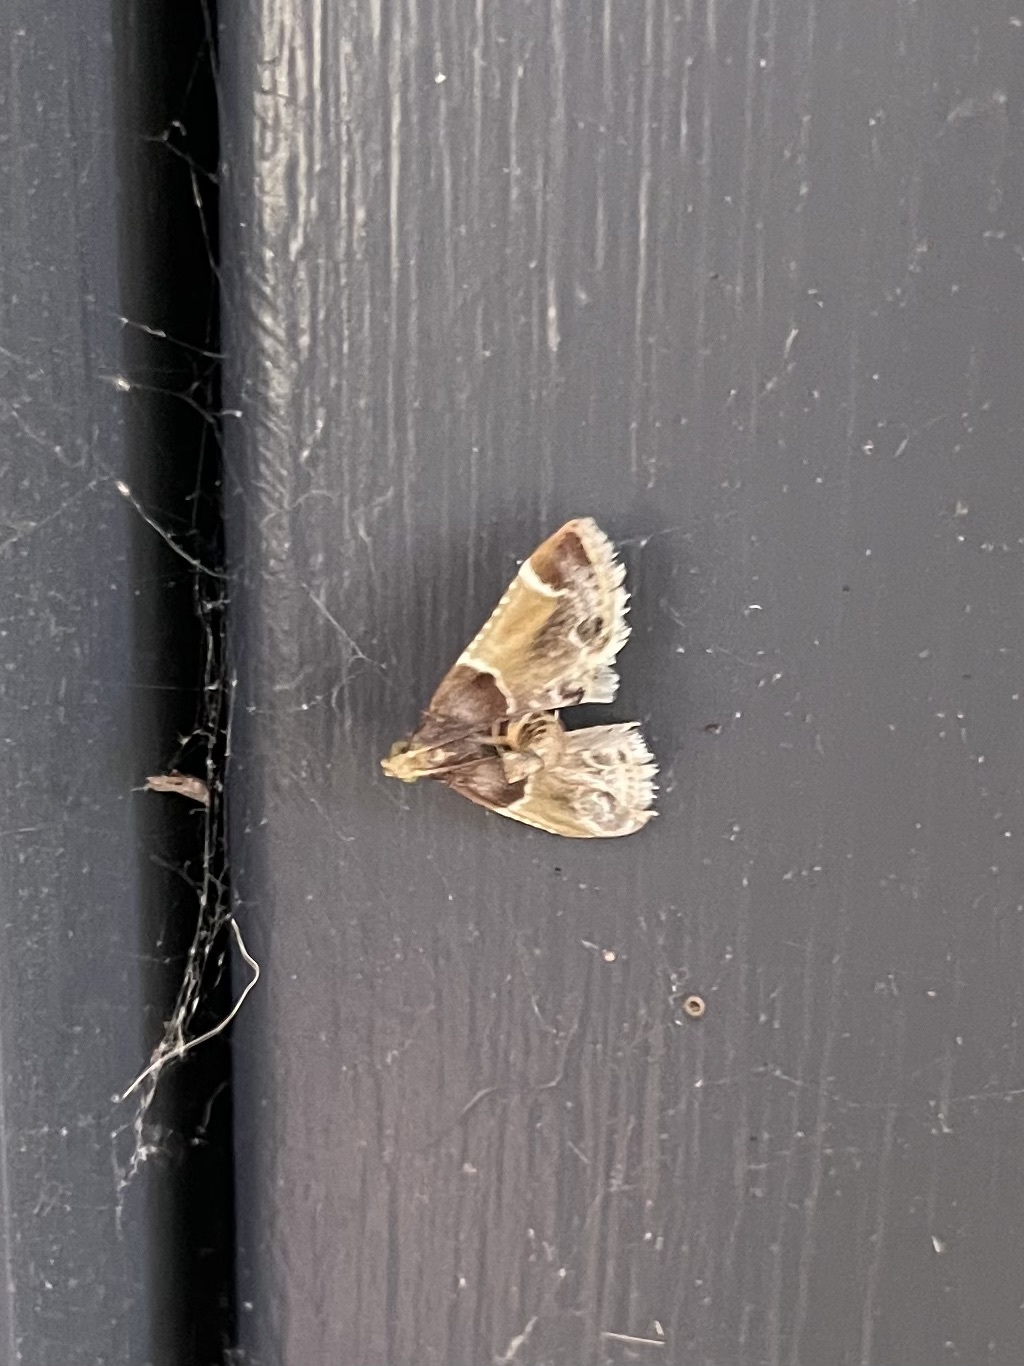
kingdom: Animalia
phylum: Arthropoda
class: Insecta
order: Lepidoptera
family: Pyralidae
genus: Pyralis
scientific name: Pyralis farinalis
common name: Meal moth
